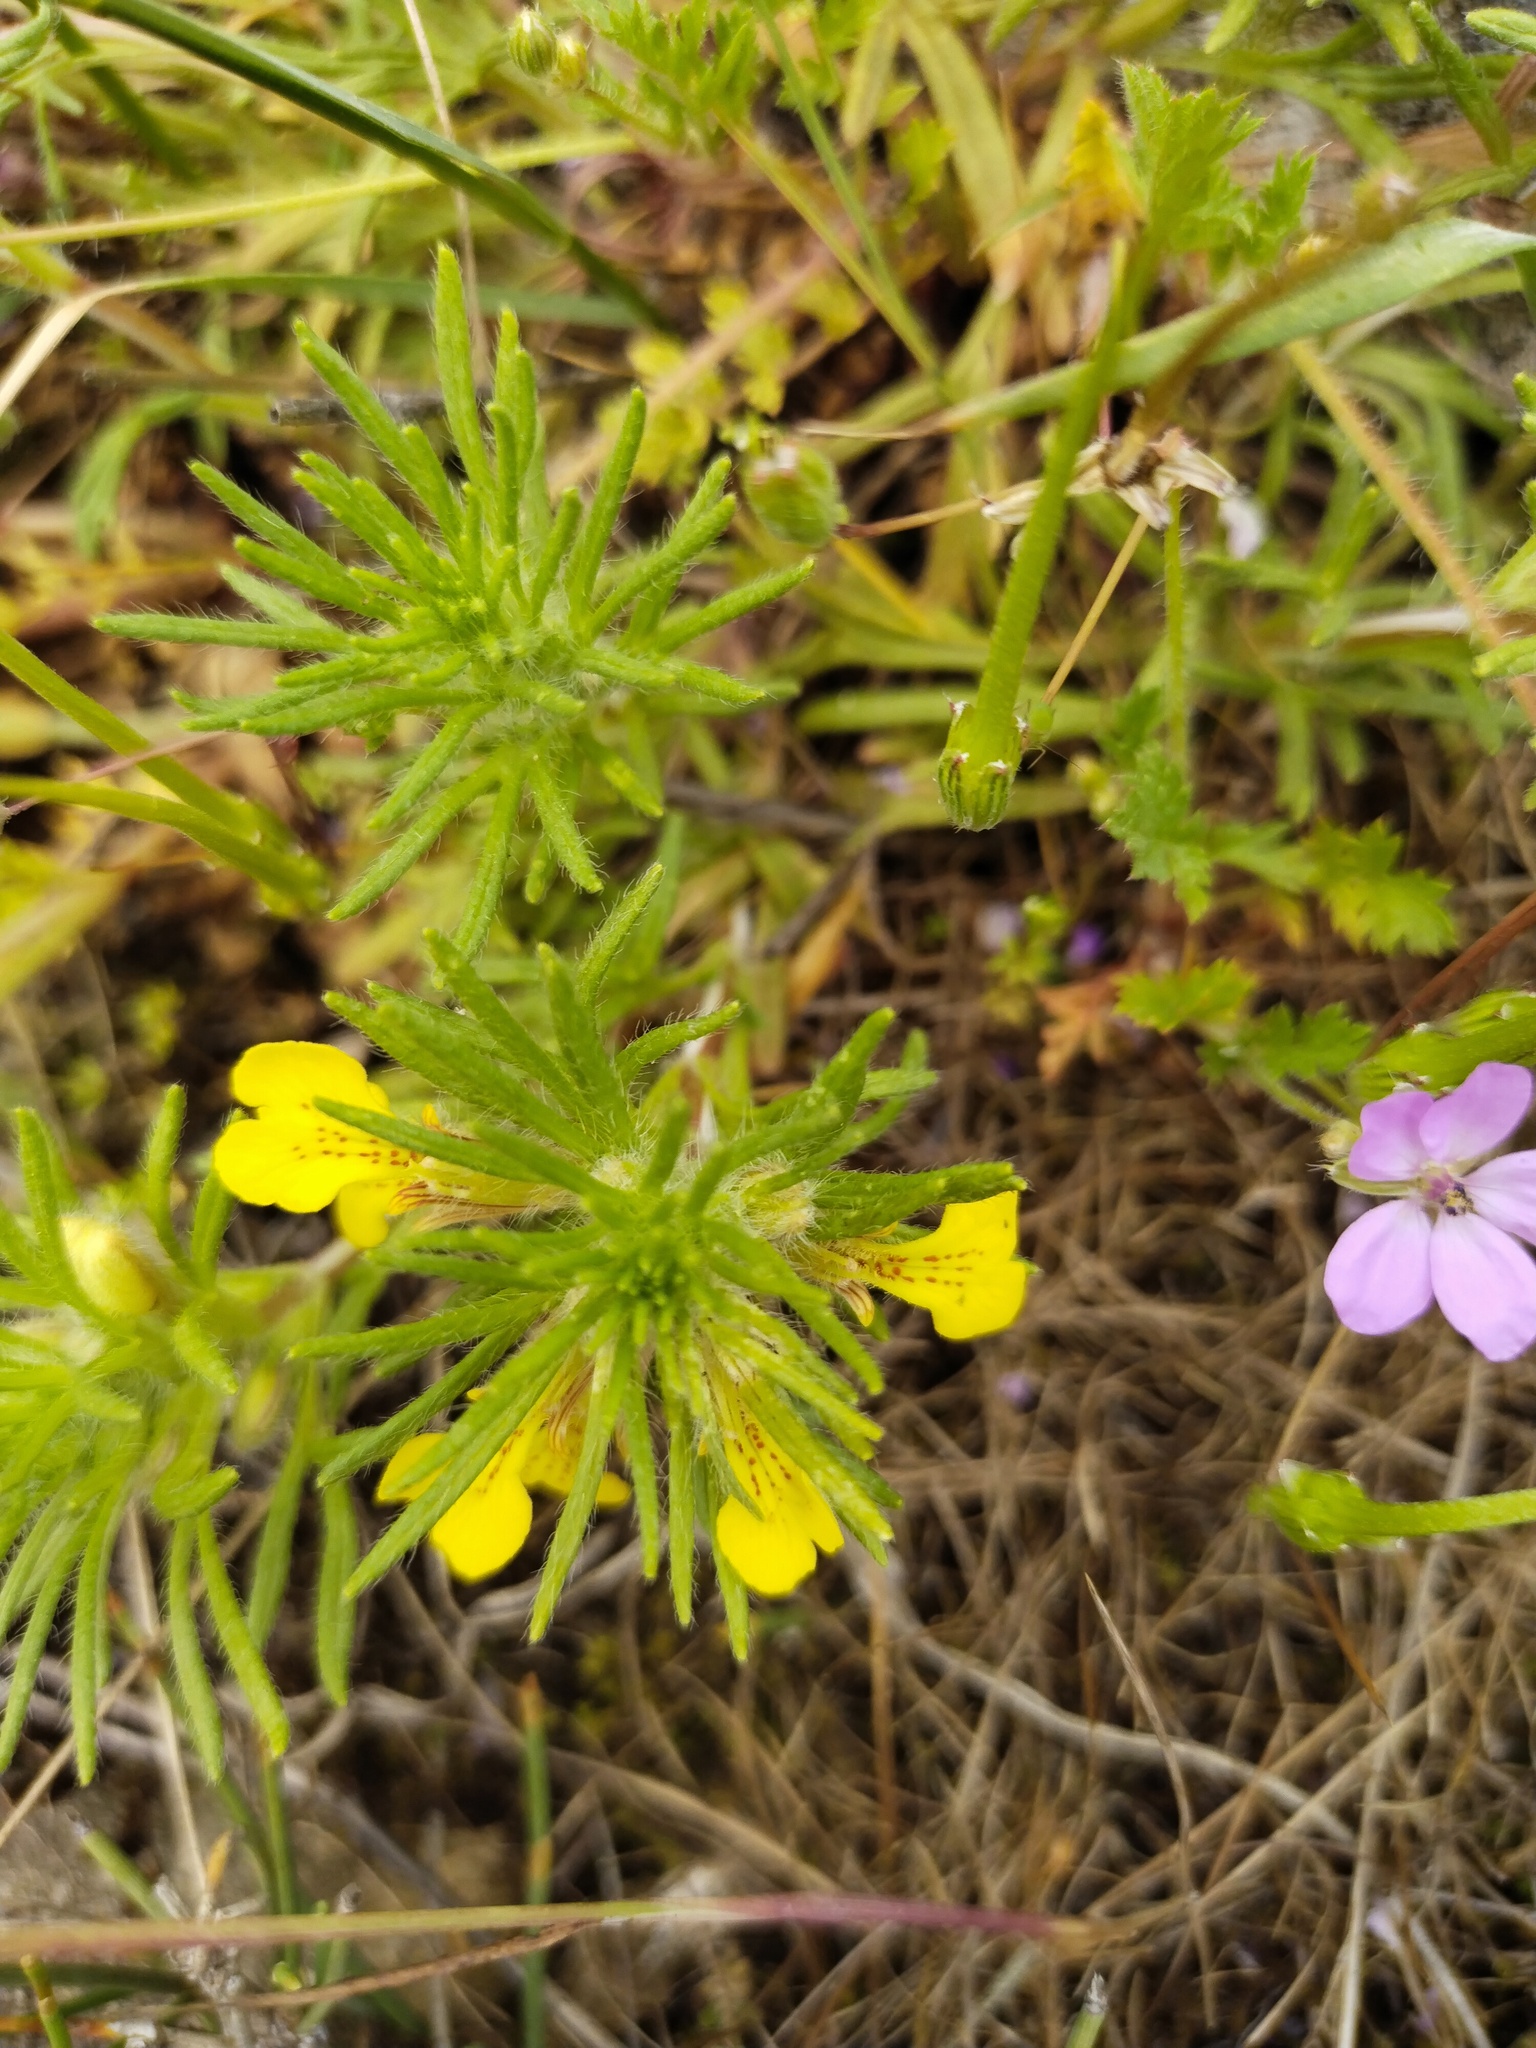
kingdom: Plantae
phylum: Tracheophyta
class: Magnoliopsida
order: Lamiales
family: Lamiaceae
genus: Ajuga
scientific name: Ajuga chamaepitys
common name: Ground-pine
